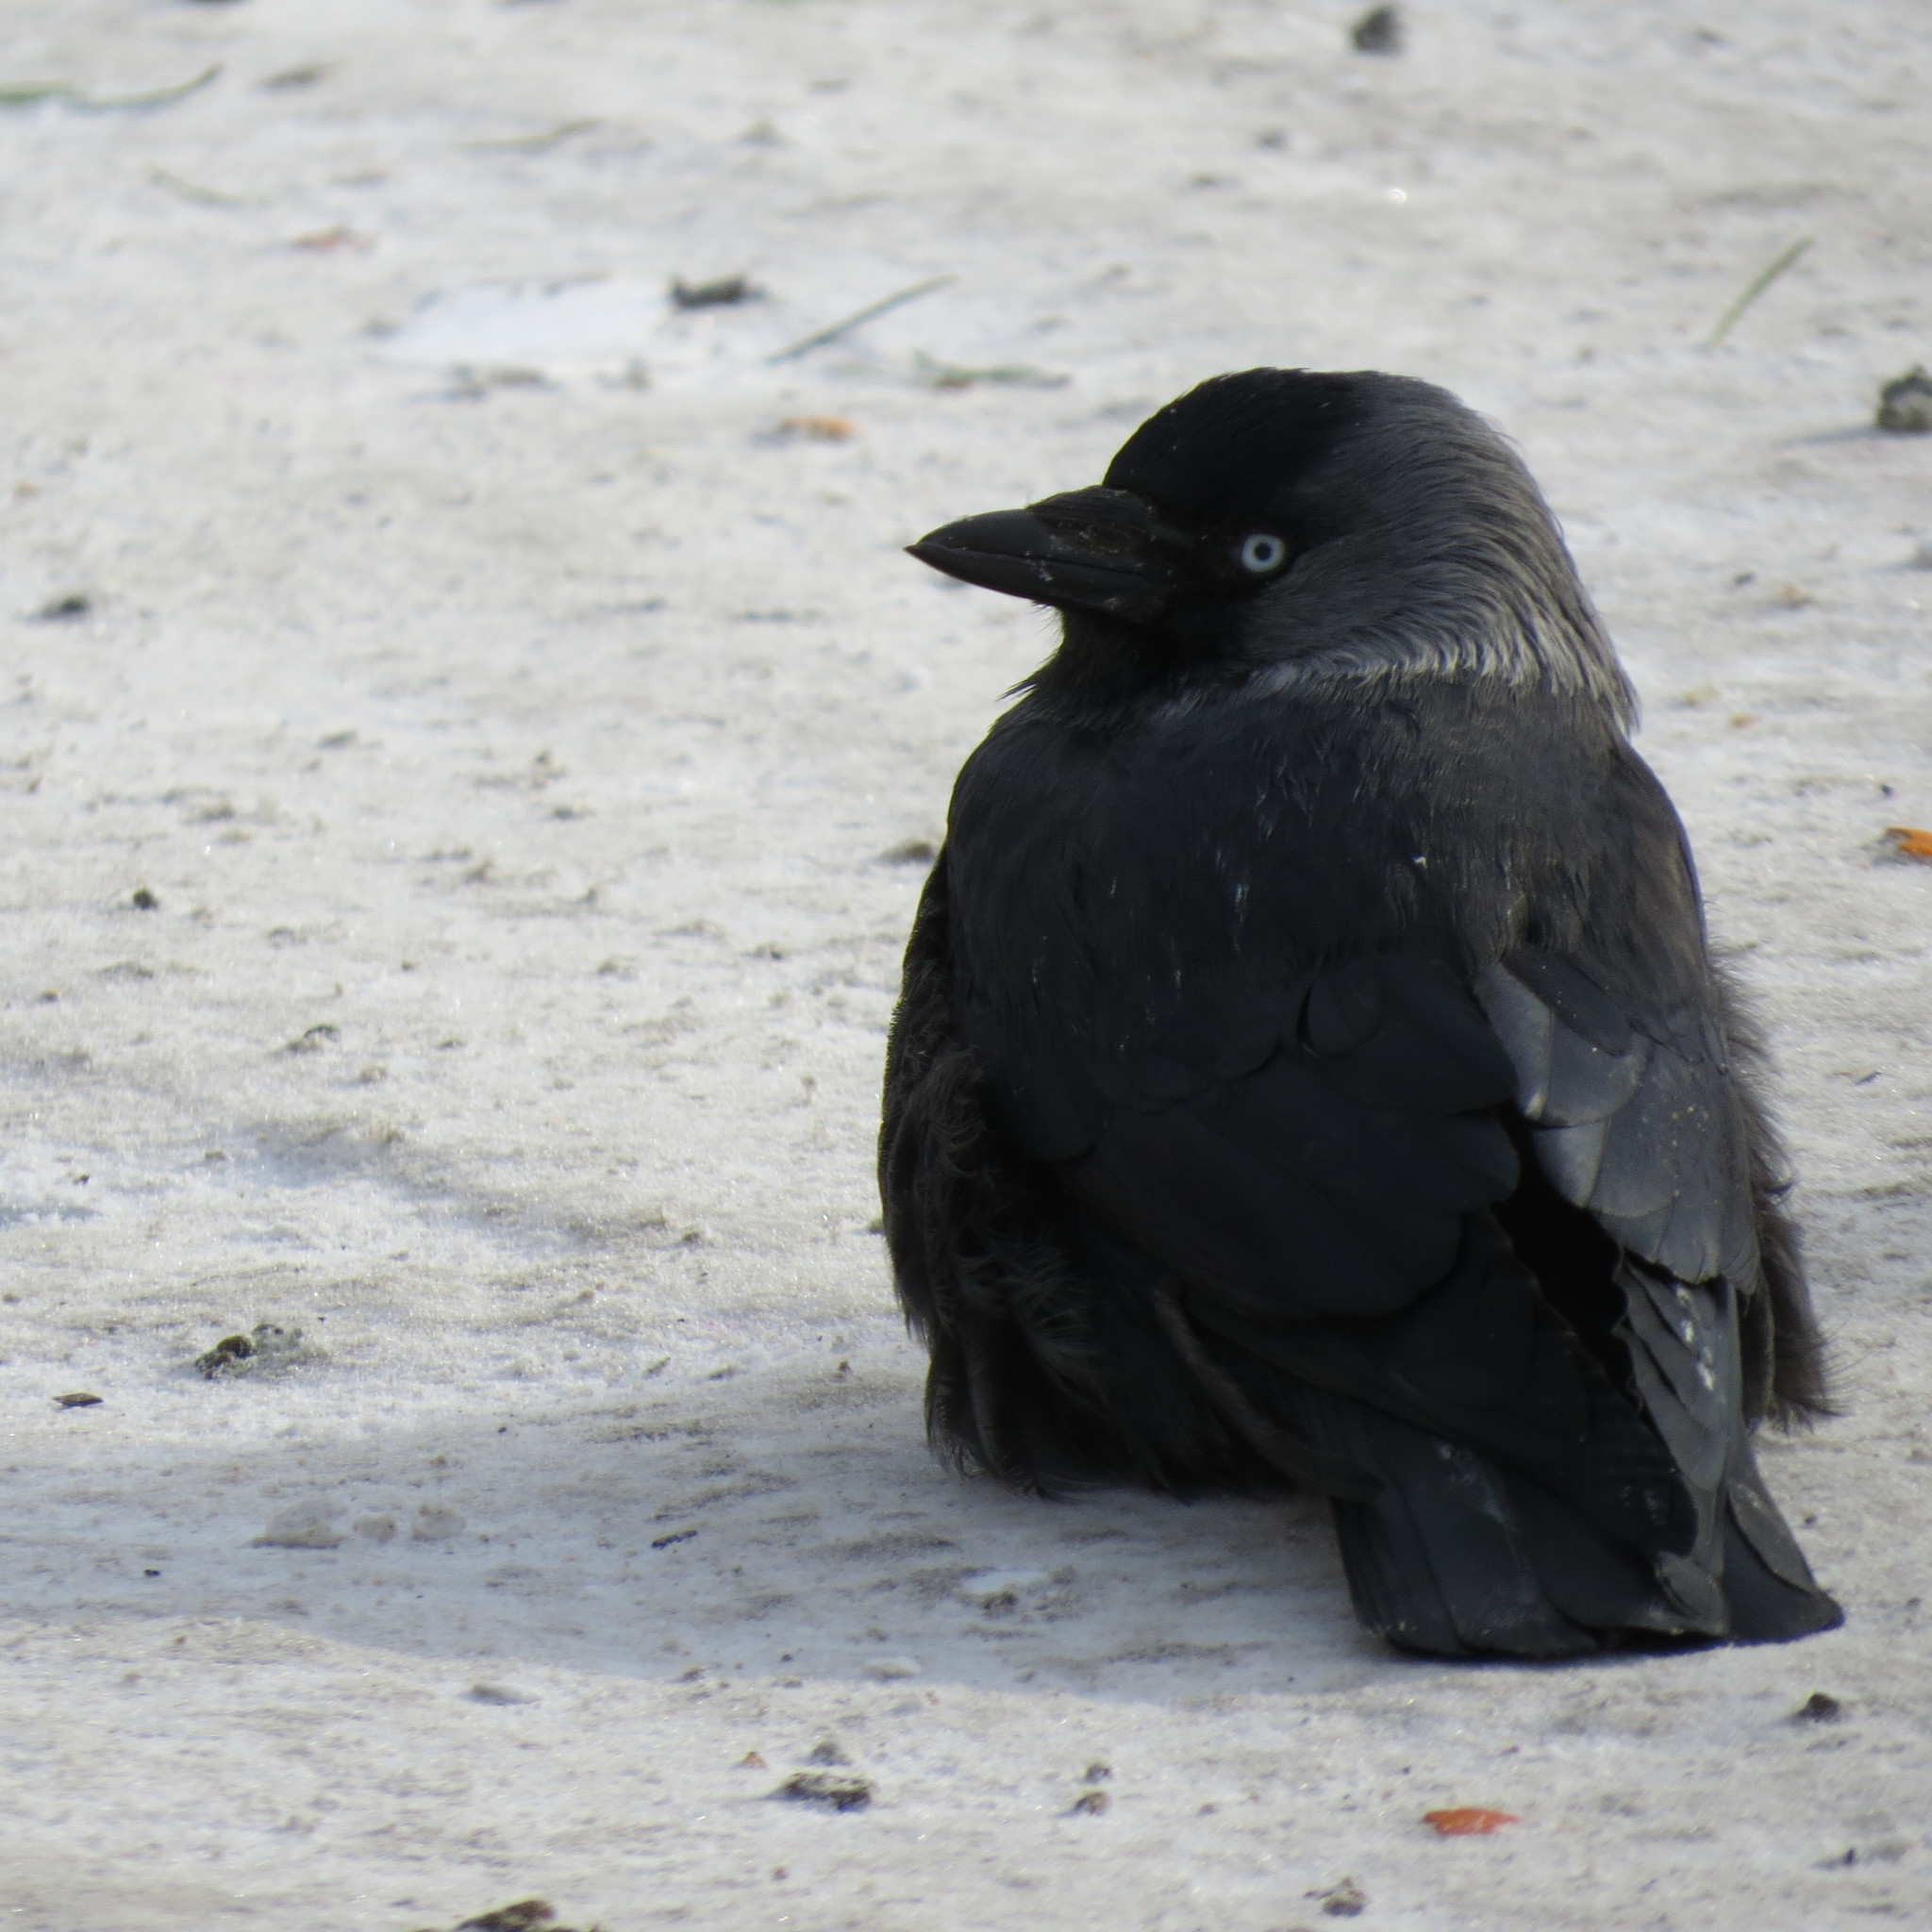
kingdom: Animalia
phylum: Chordata
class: Aves
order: Passeriformes
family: Corvidae
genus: Coloeus
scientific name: Coloeus monedula
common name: Western jackdaw
